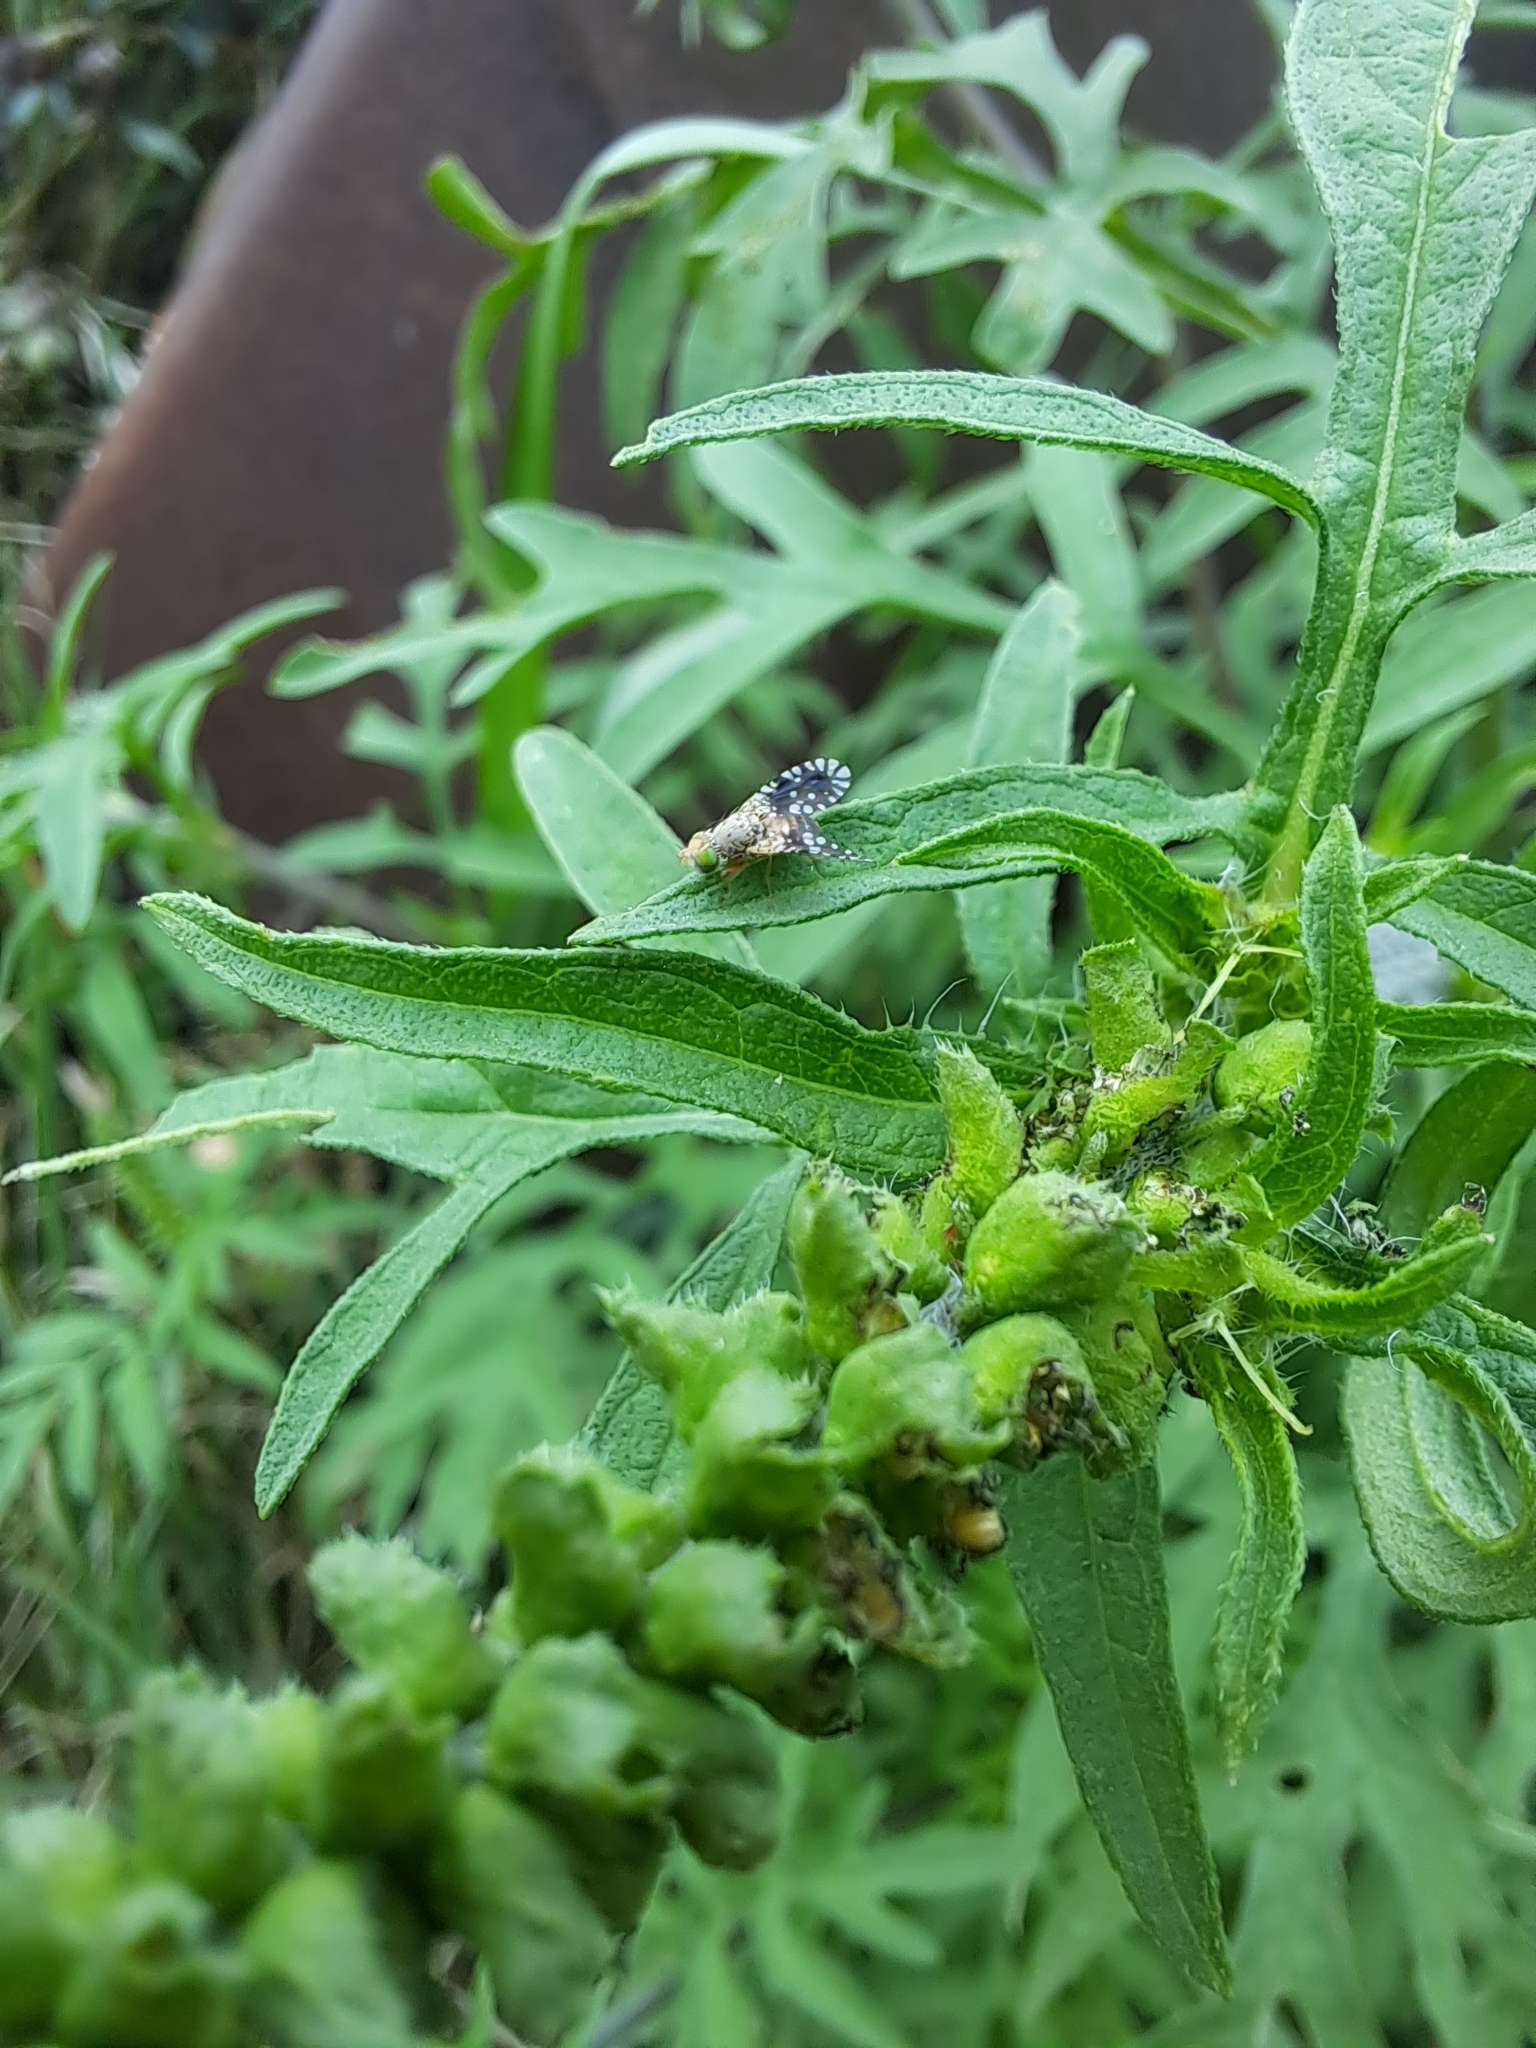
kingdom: Animalia
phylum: Arthropoda
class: Insecta
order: Diptera
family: Tephritidae
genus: Euaresta
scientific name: Euaresta bella
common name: Common ragweed fruit fly
